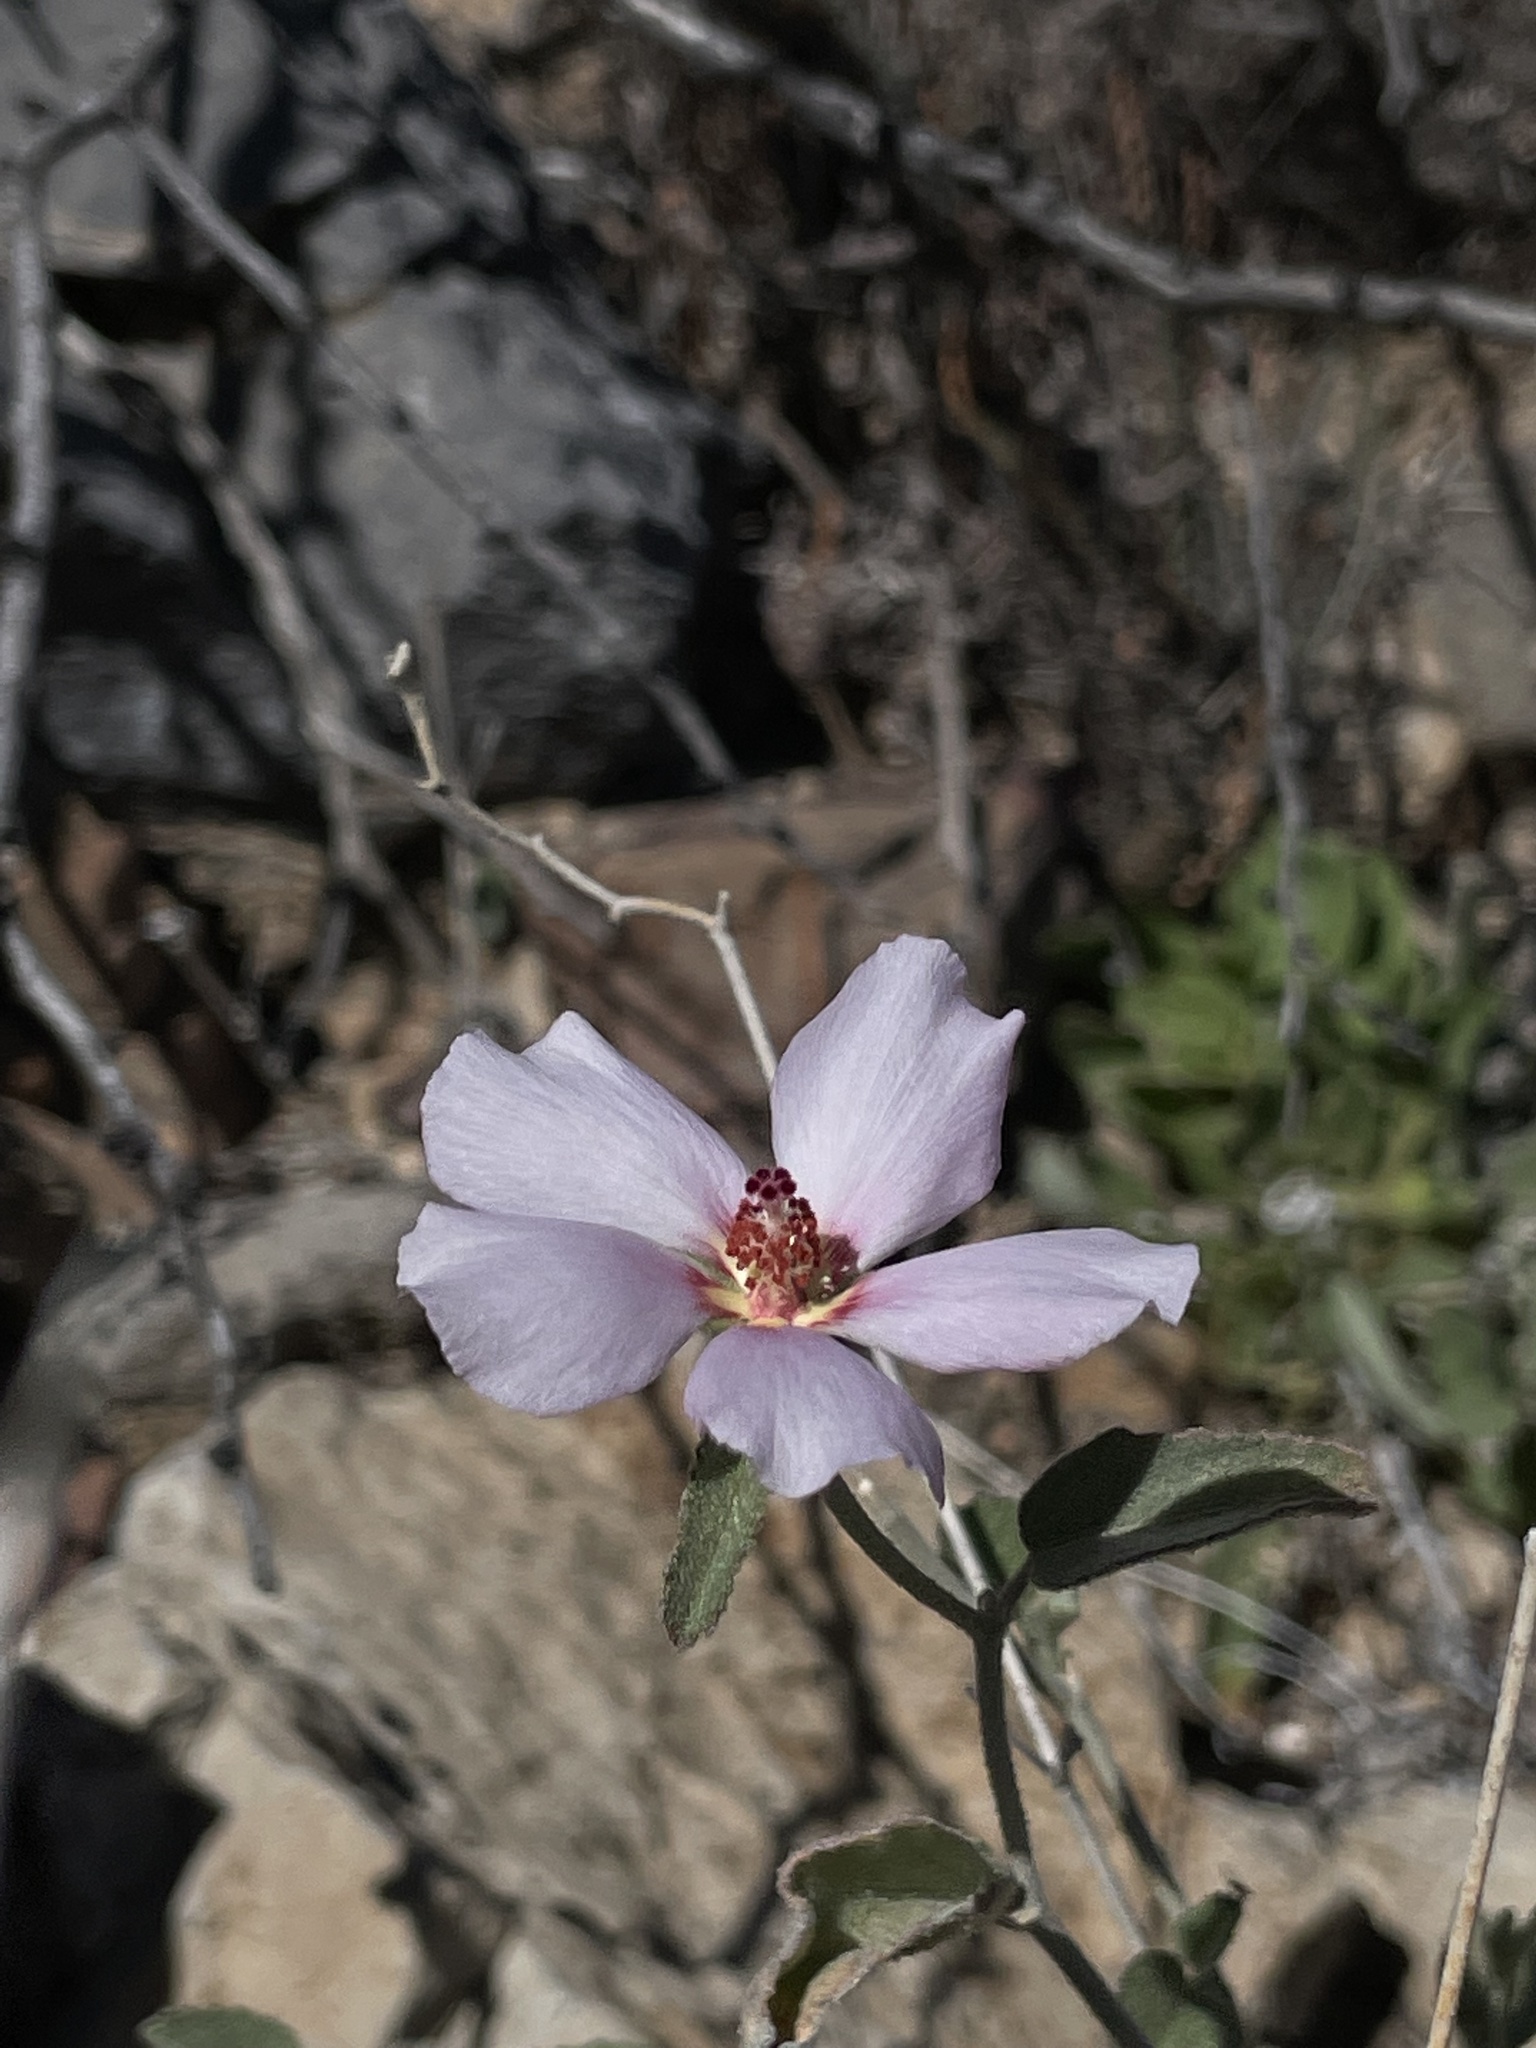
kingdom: Plantae
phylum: Tracheophyta
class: Magnoliopsida
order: Malvales
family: Malvaceae
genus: Hibiscus
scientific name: Hibiscus denudatus
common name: Paleface
